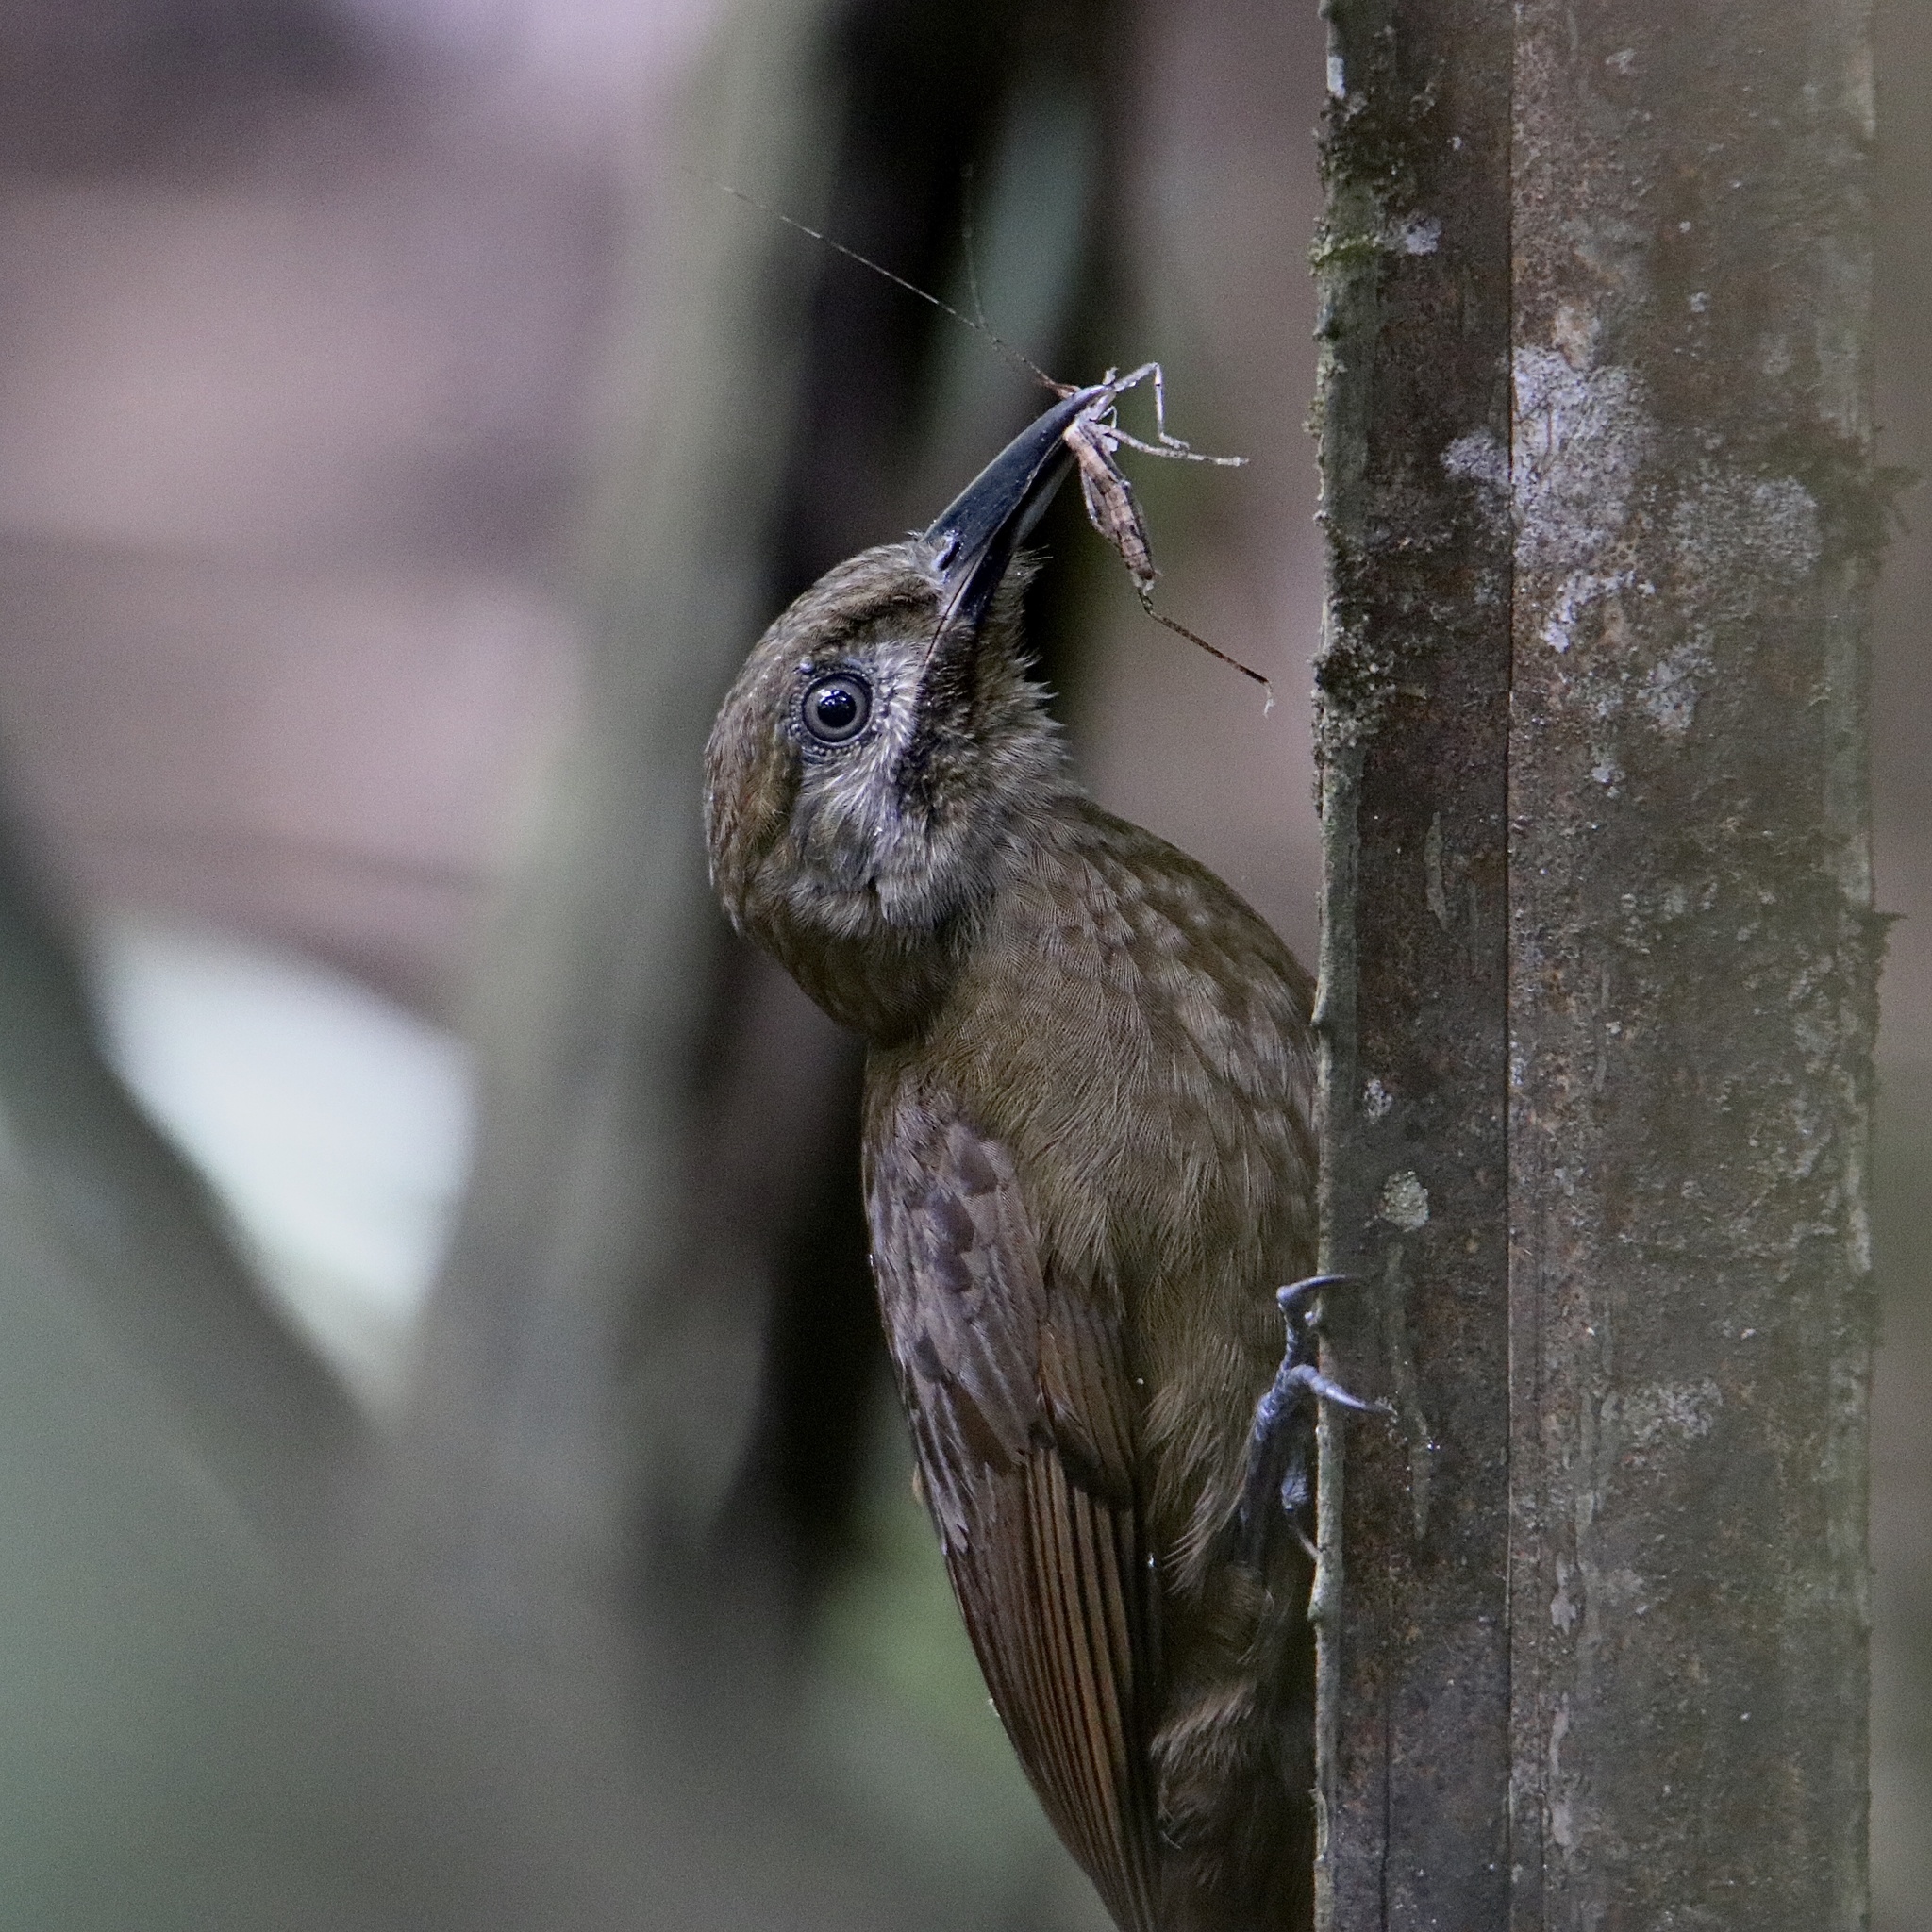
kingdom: Animalia
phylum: Chordata
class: Aves
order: Passeriformes
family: Furnariidae
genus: Dendrocincla
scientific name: Dendrocincla fuliginosa
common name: Plain-brown woodcreeper
